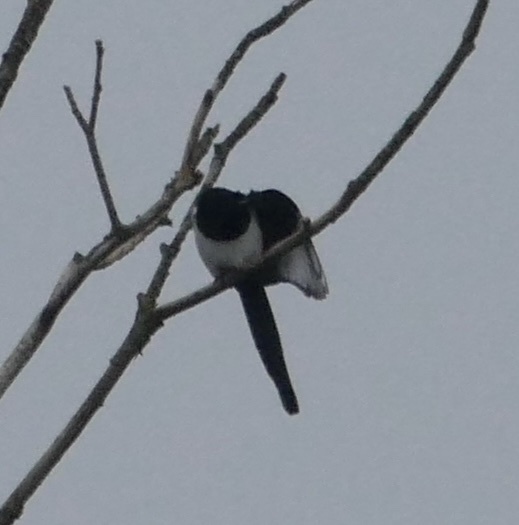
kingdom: Animalia
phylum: Chordata
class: Aves
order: Passeriformes
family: Corvidae
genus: Pica
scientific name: Pica pica
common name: Eurasian magpie
